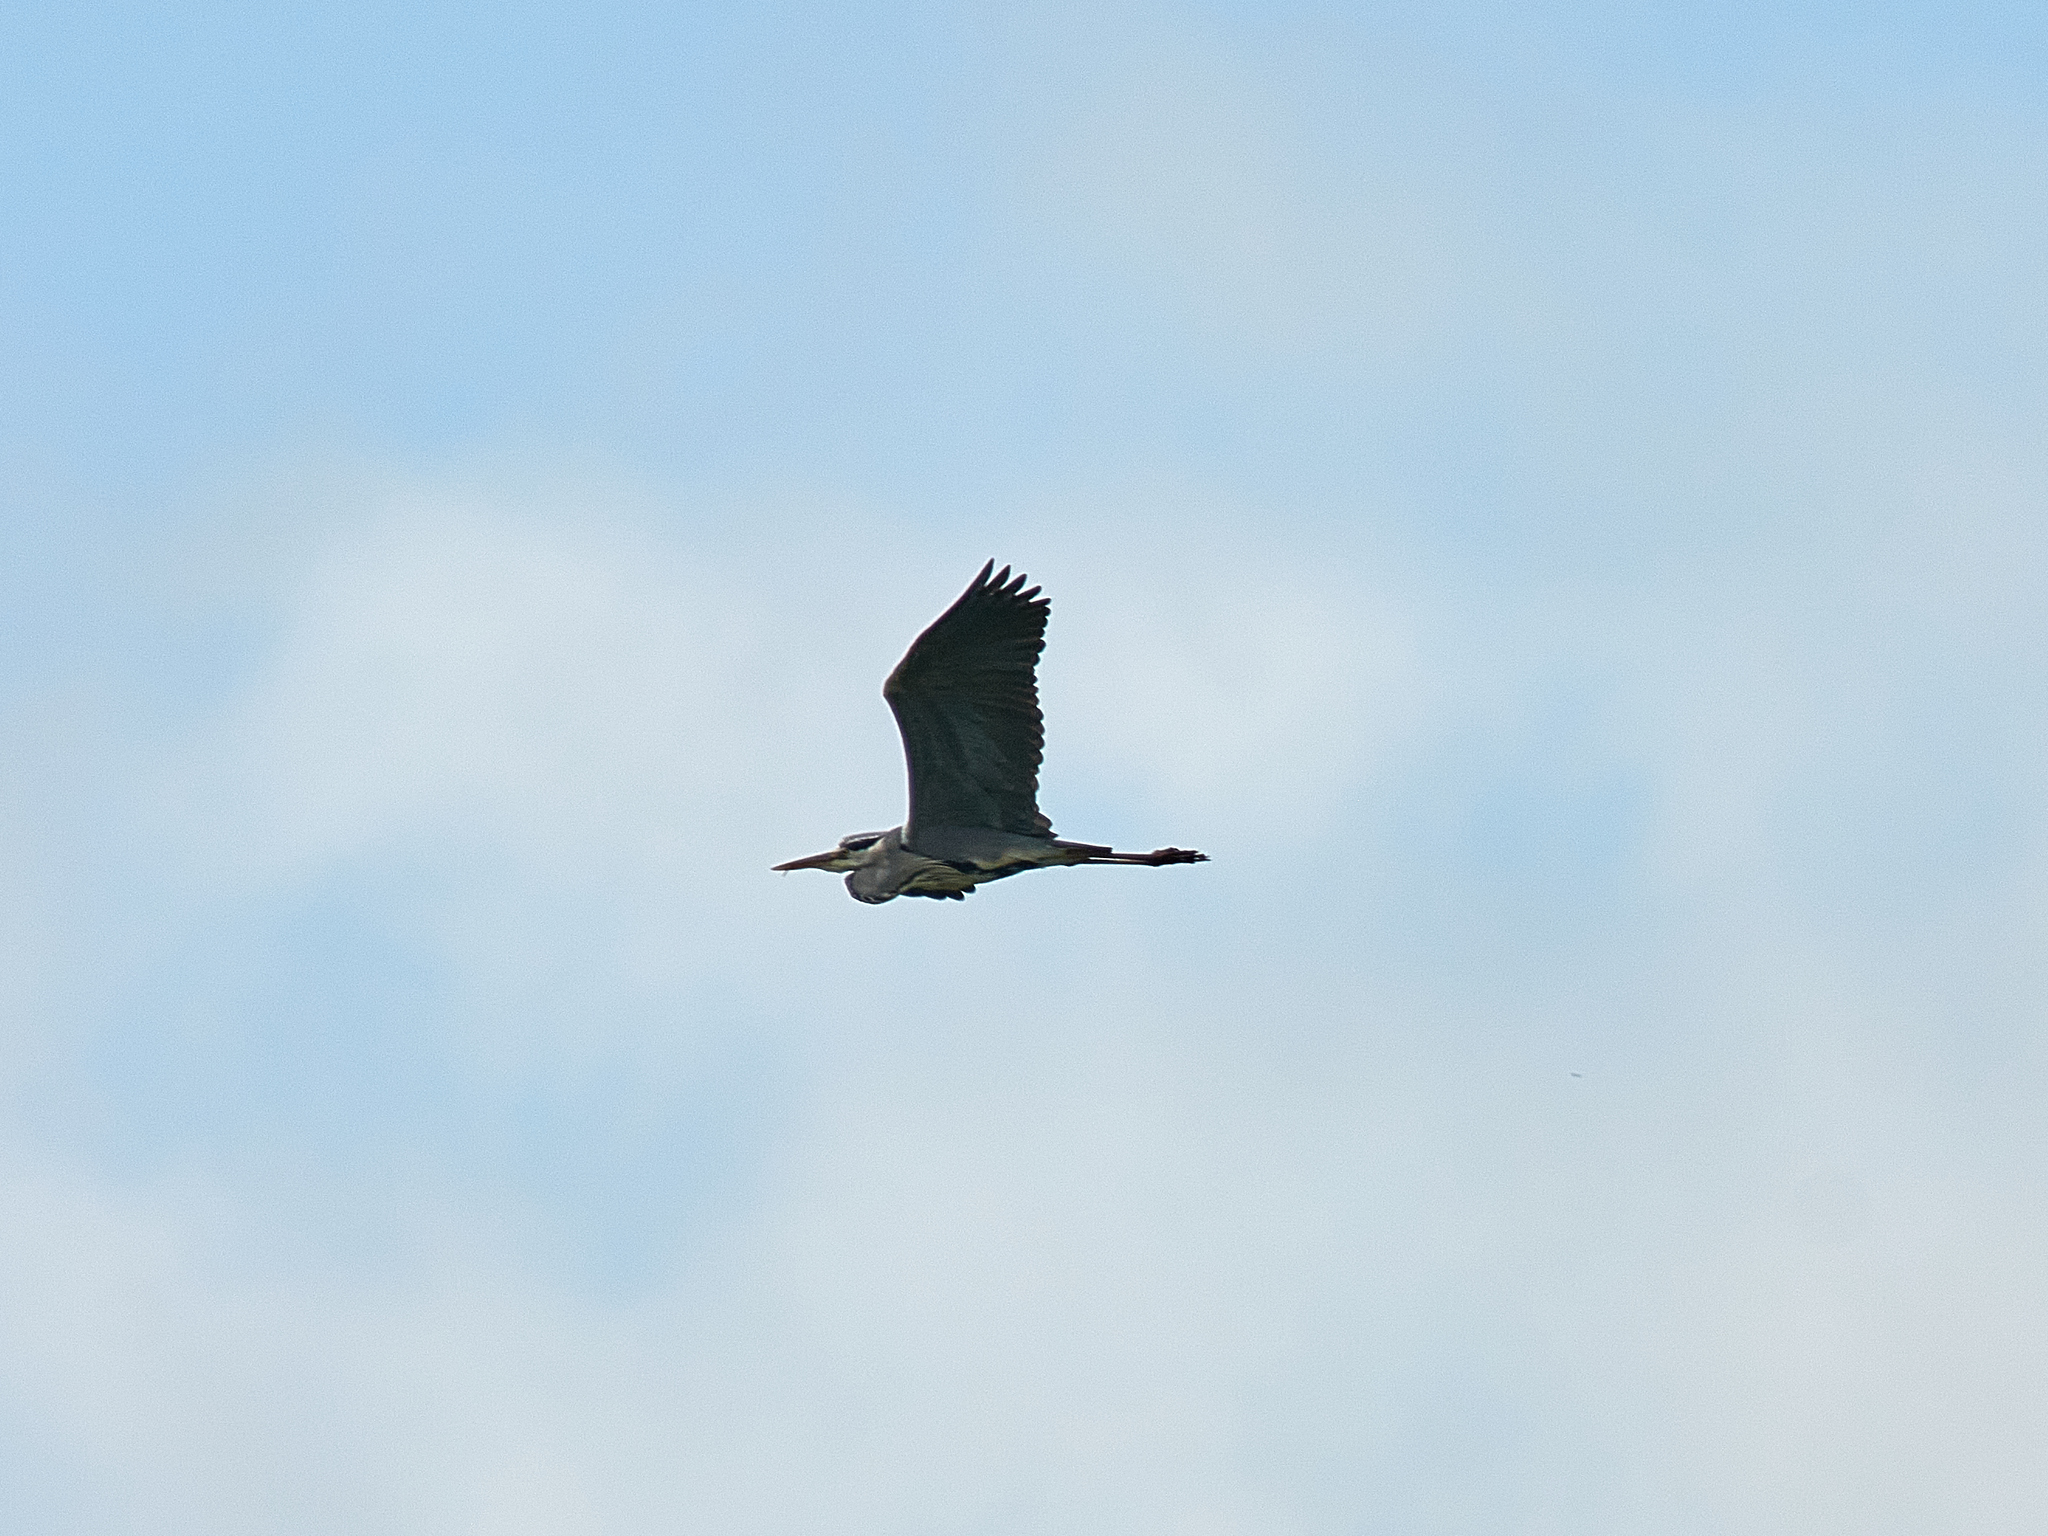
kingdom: Animalia
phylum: Chordata
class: Aves
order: Pelecaniformes
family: Ardeidae
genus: Ardea
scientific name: Ardea cinerea
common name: Grey heron
